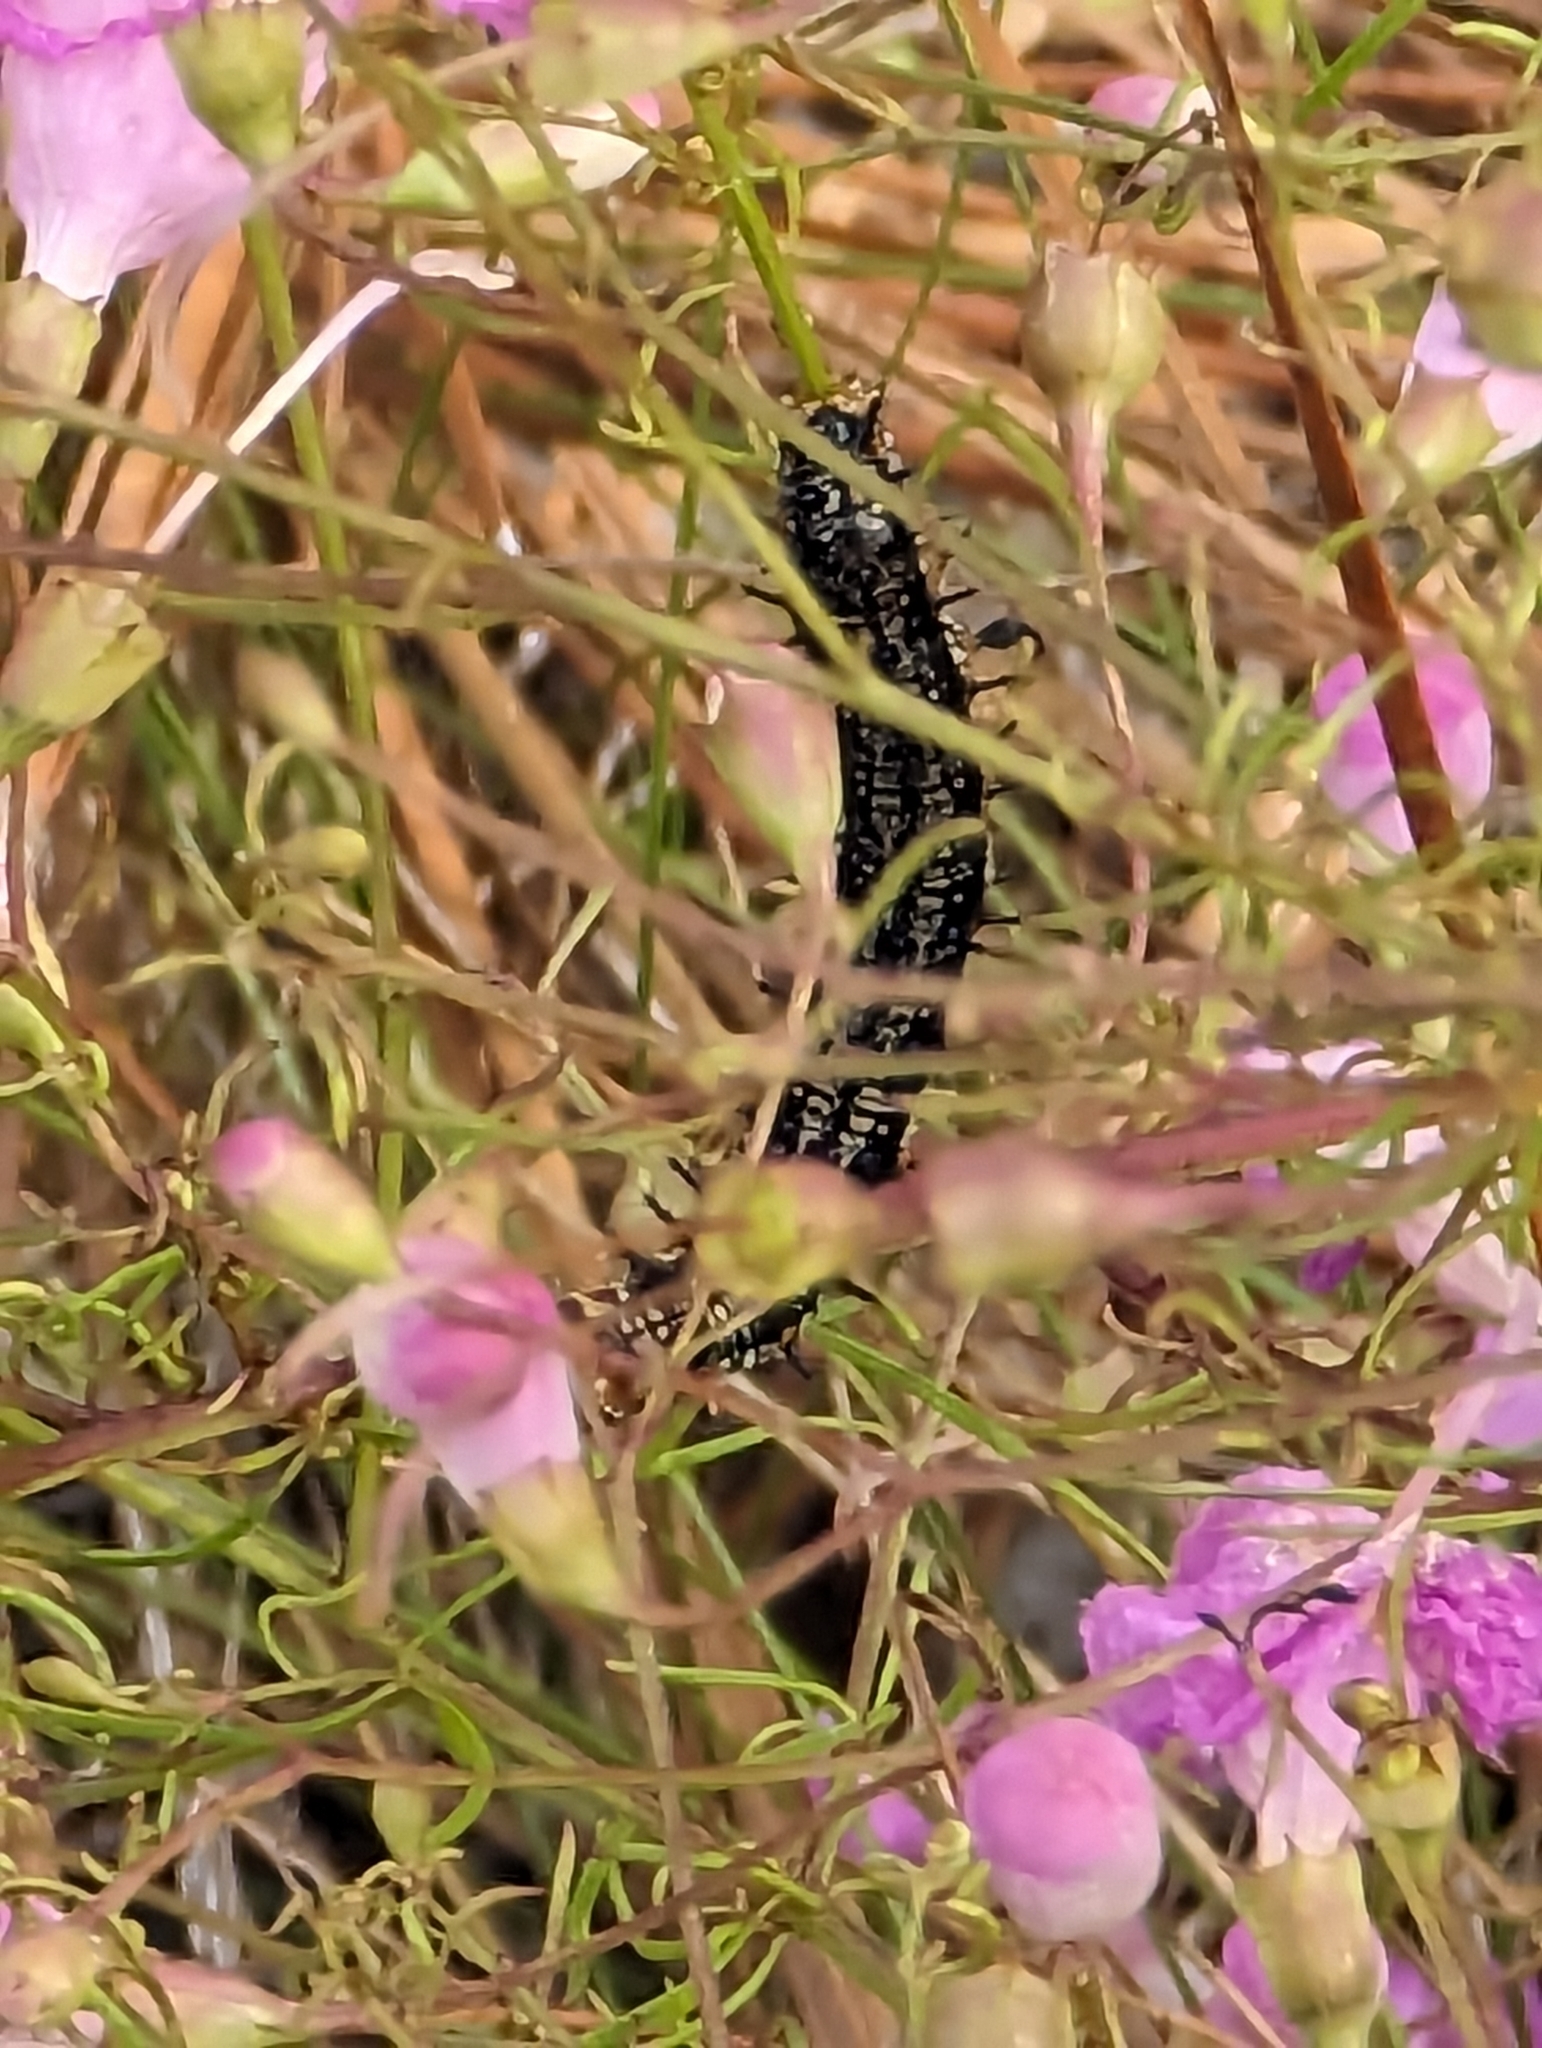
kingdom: Animalia
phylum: Arthropoda
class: Insecta
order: Lepidoptera
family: Nymphalidae
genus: Junonia
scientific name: Junonia coenia
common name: Common buckeye
